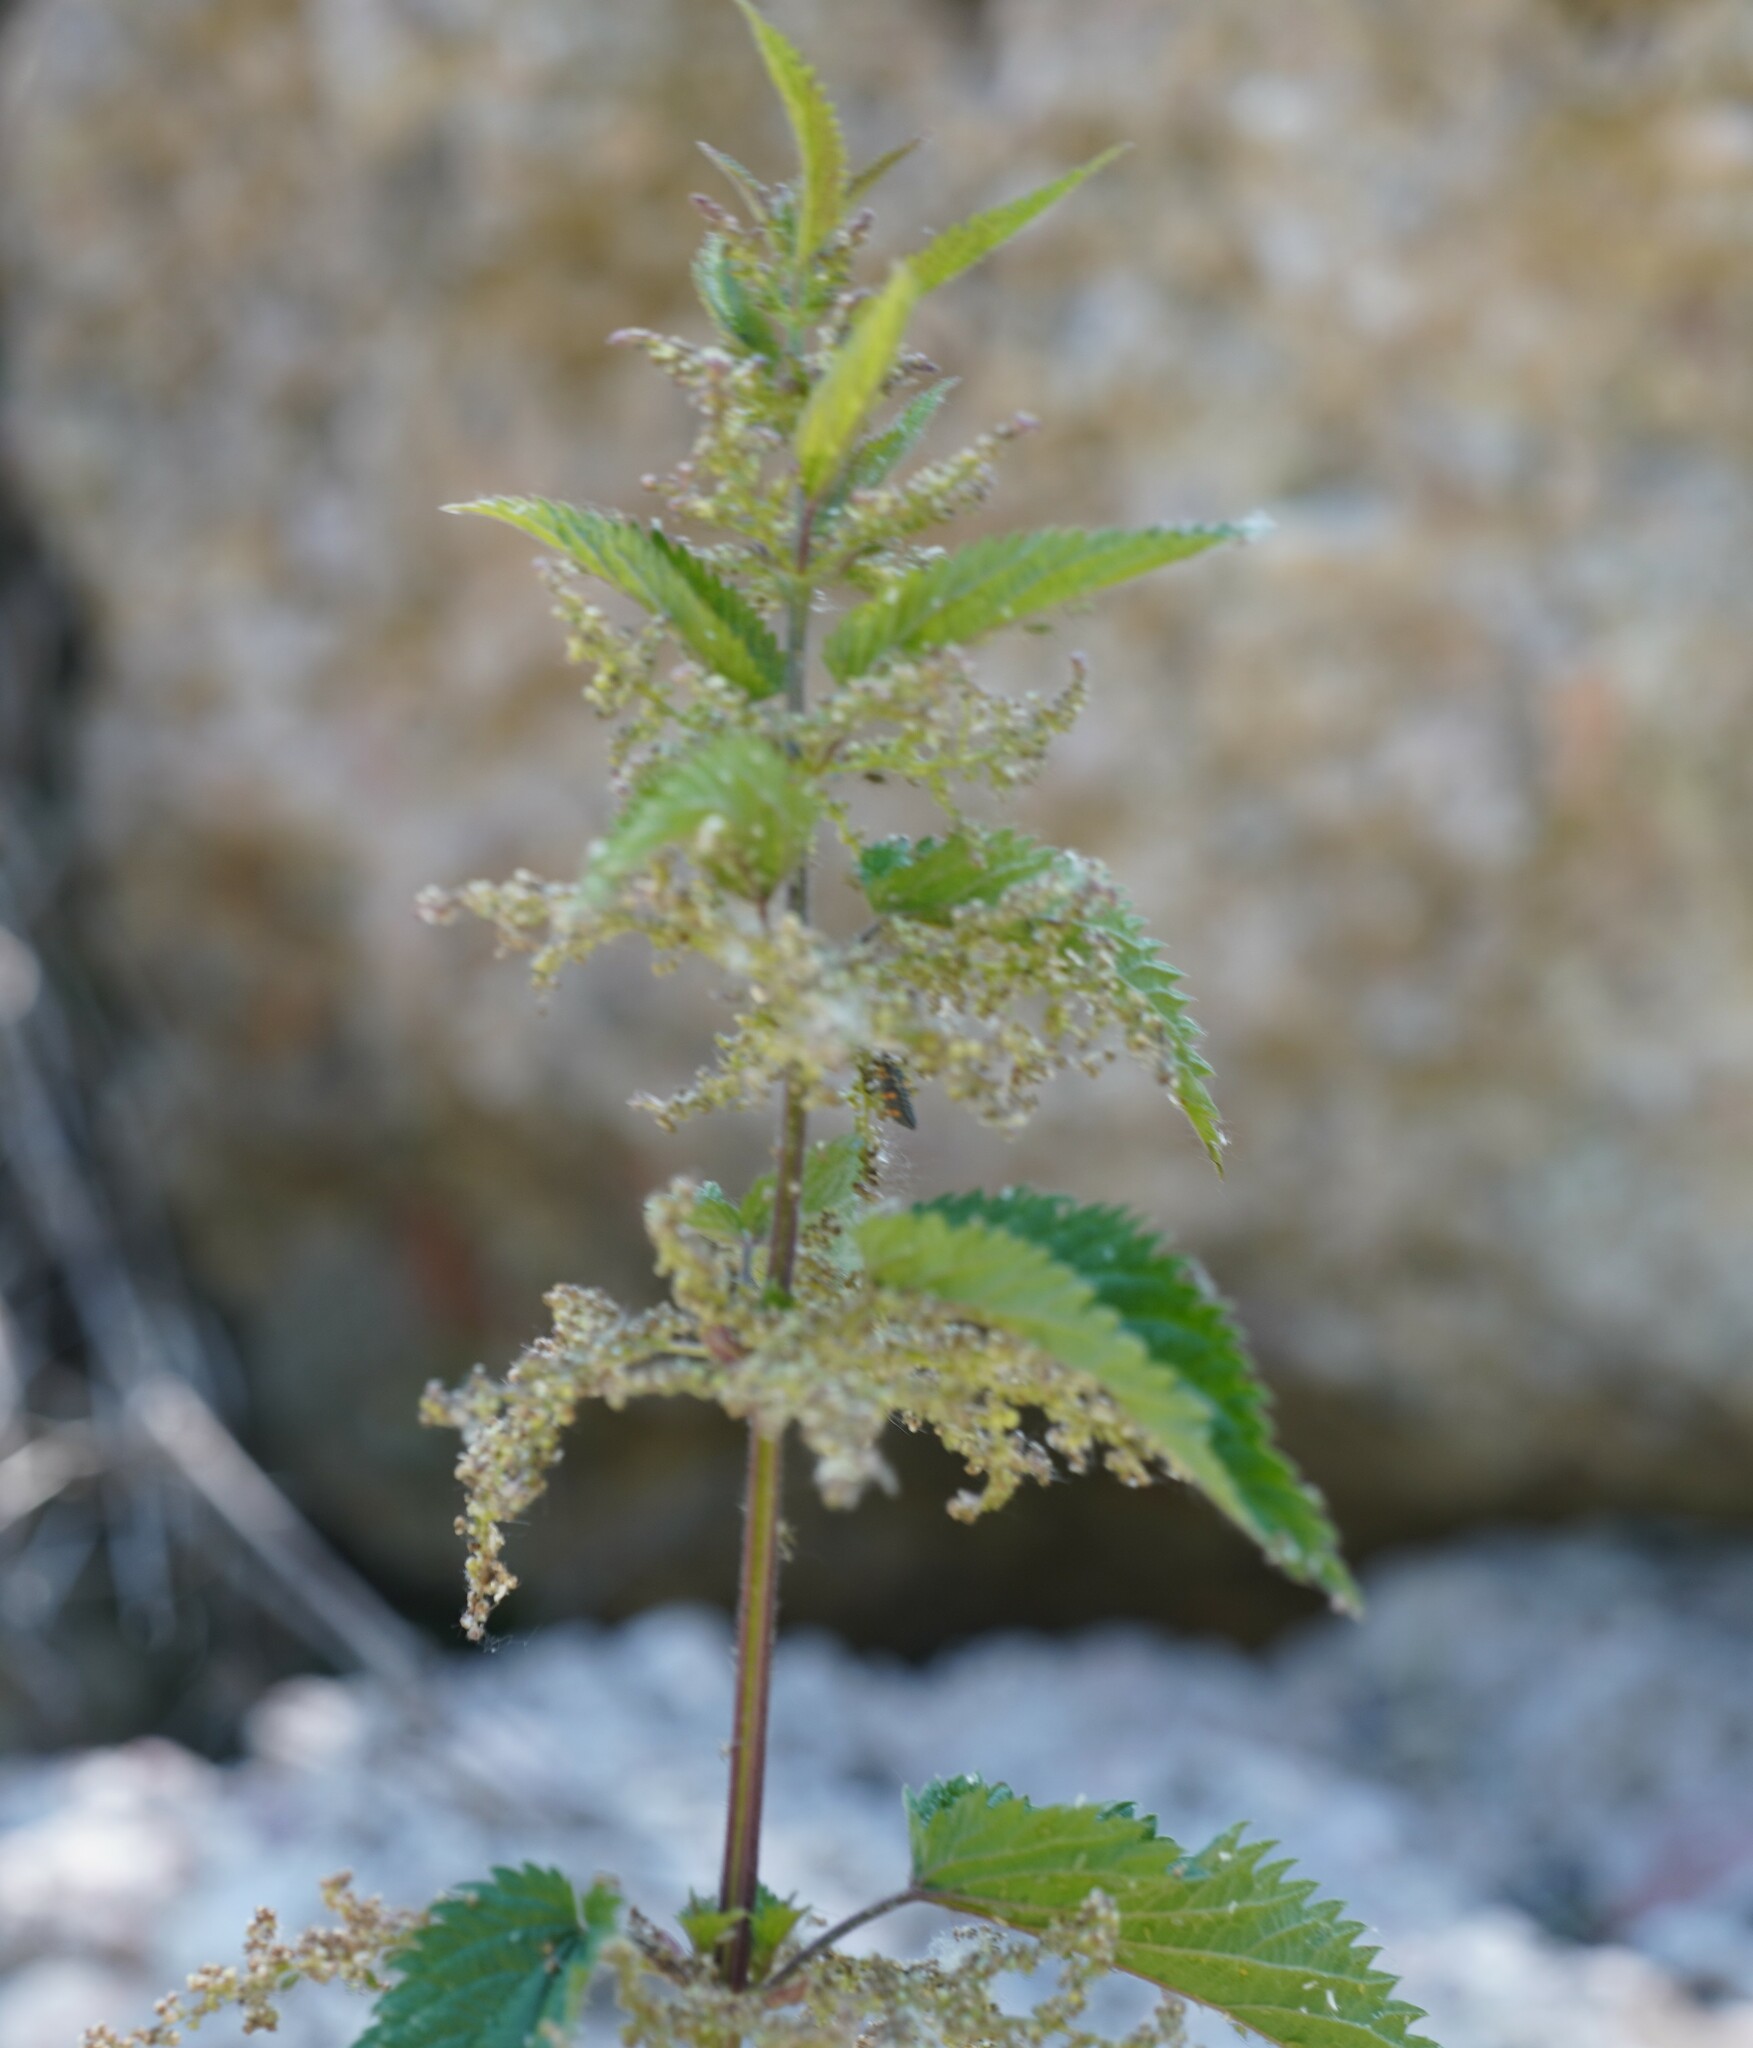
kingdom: Plantae
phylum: Tracheophyta
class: Magnoliopsida
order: Rosales
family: Urticaceae
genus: Urtica
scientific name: Urtica dioica
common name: Common nettle
